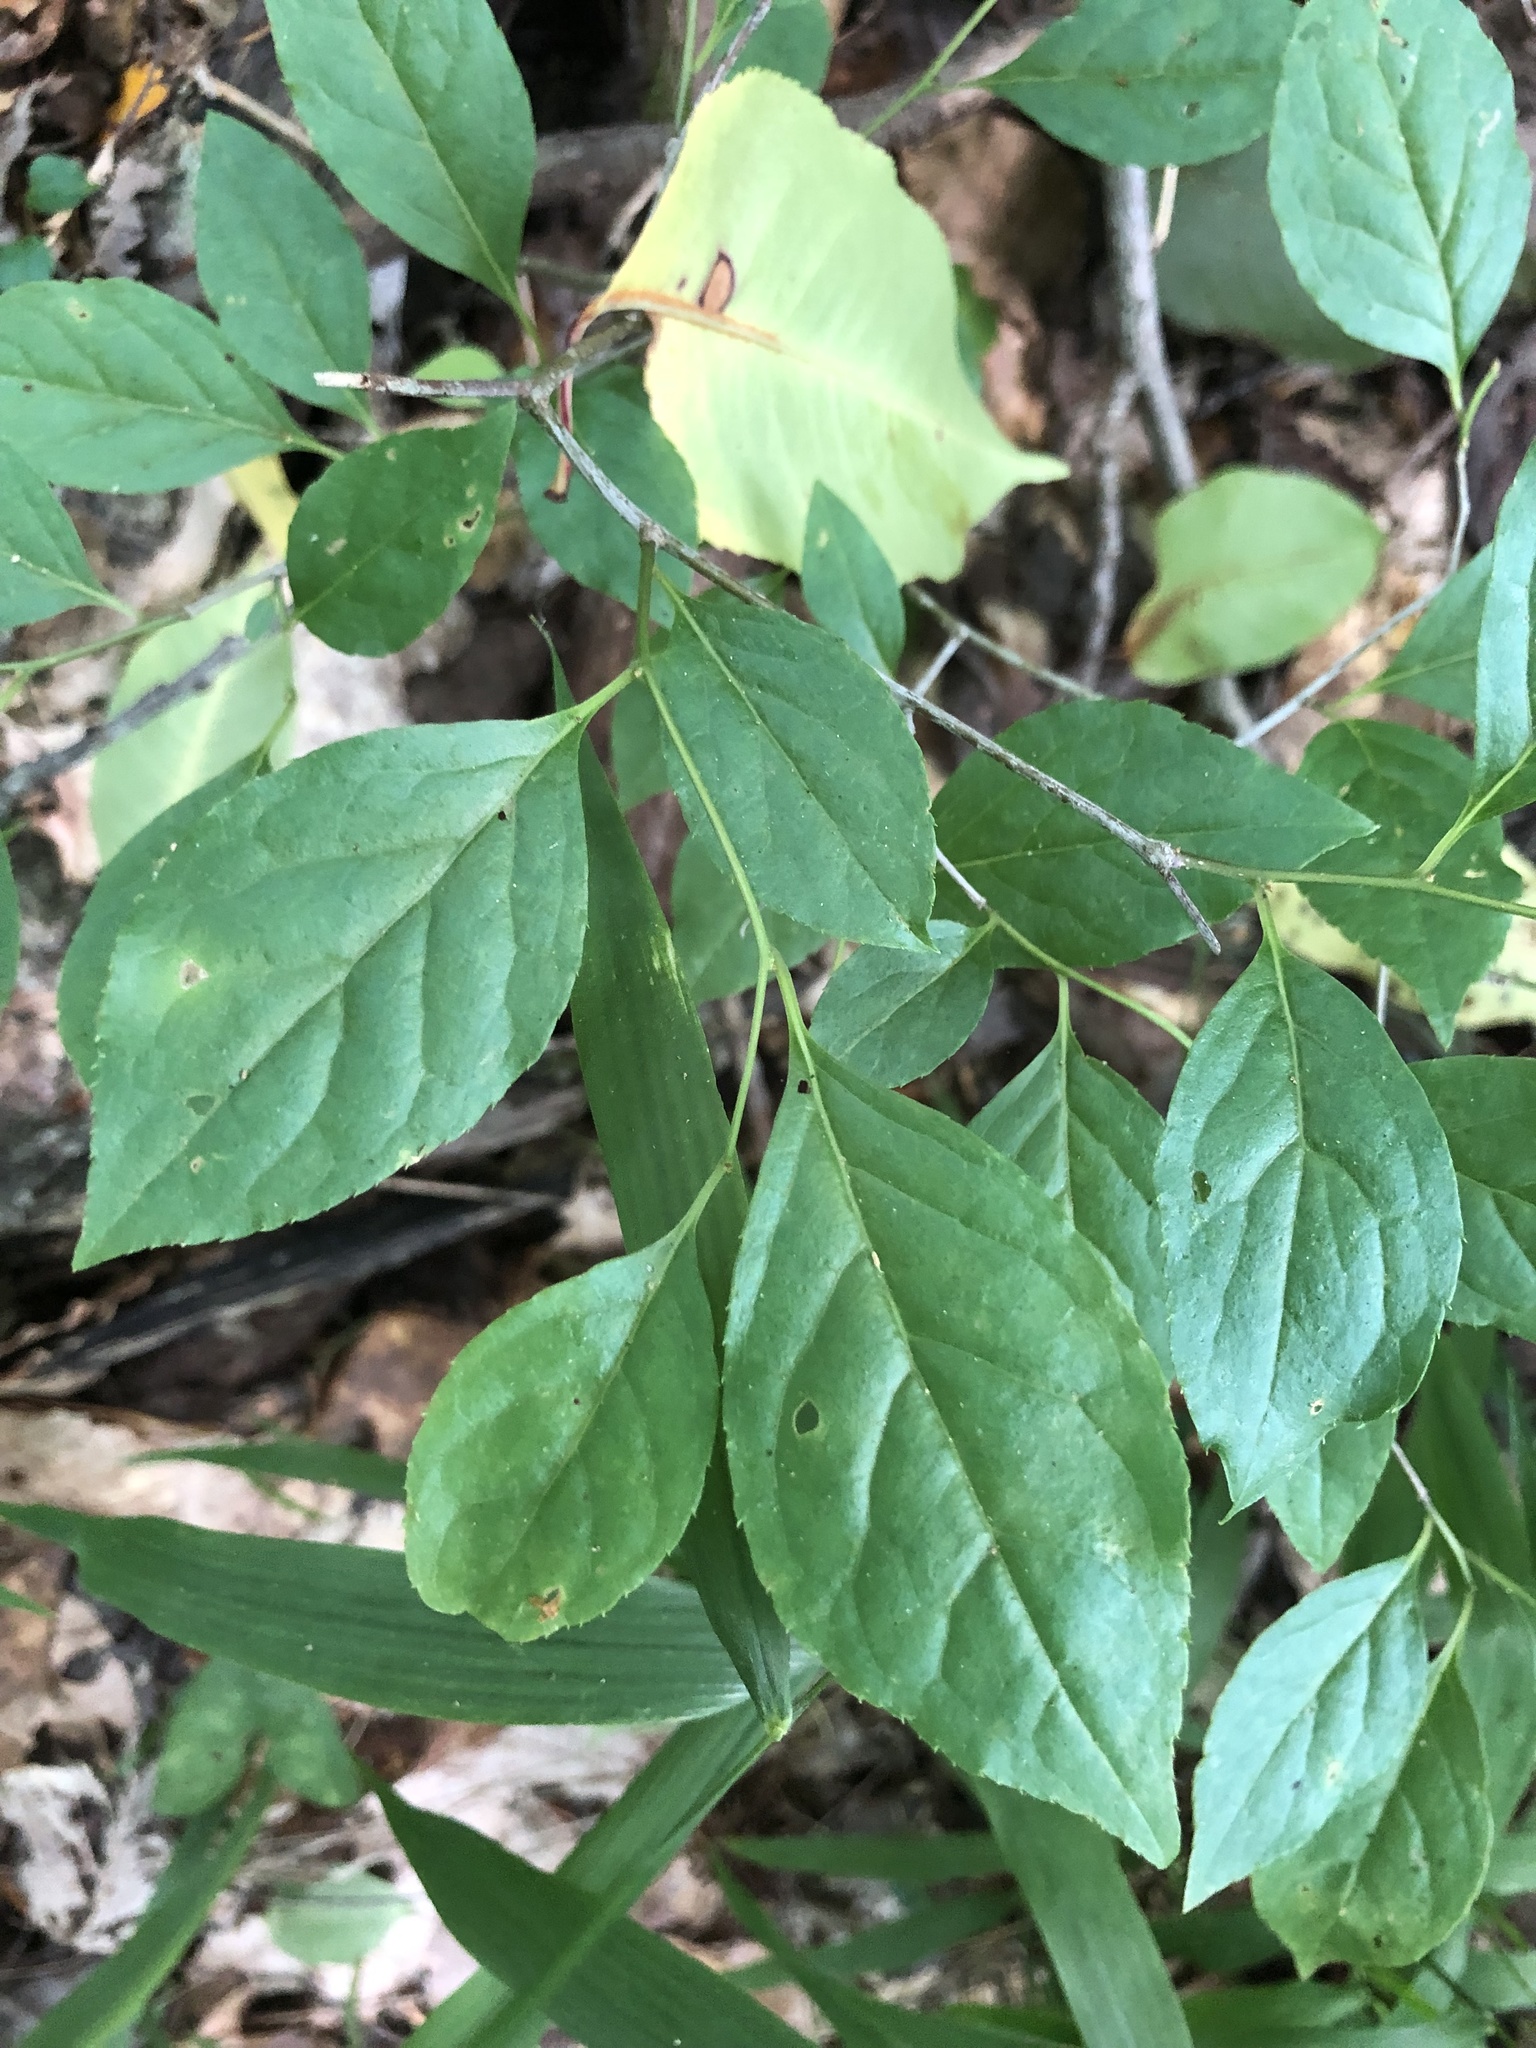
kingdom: Plantae
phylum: Tracheophyta
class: Magnoliopsida
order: Aquifoliales
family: Aquifoliaceae
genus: Ilex
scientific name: Ilex ambigua
